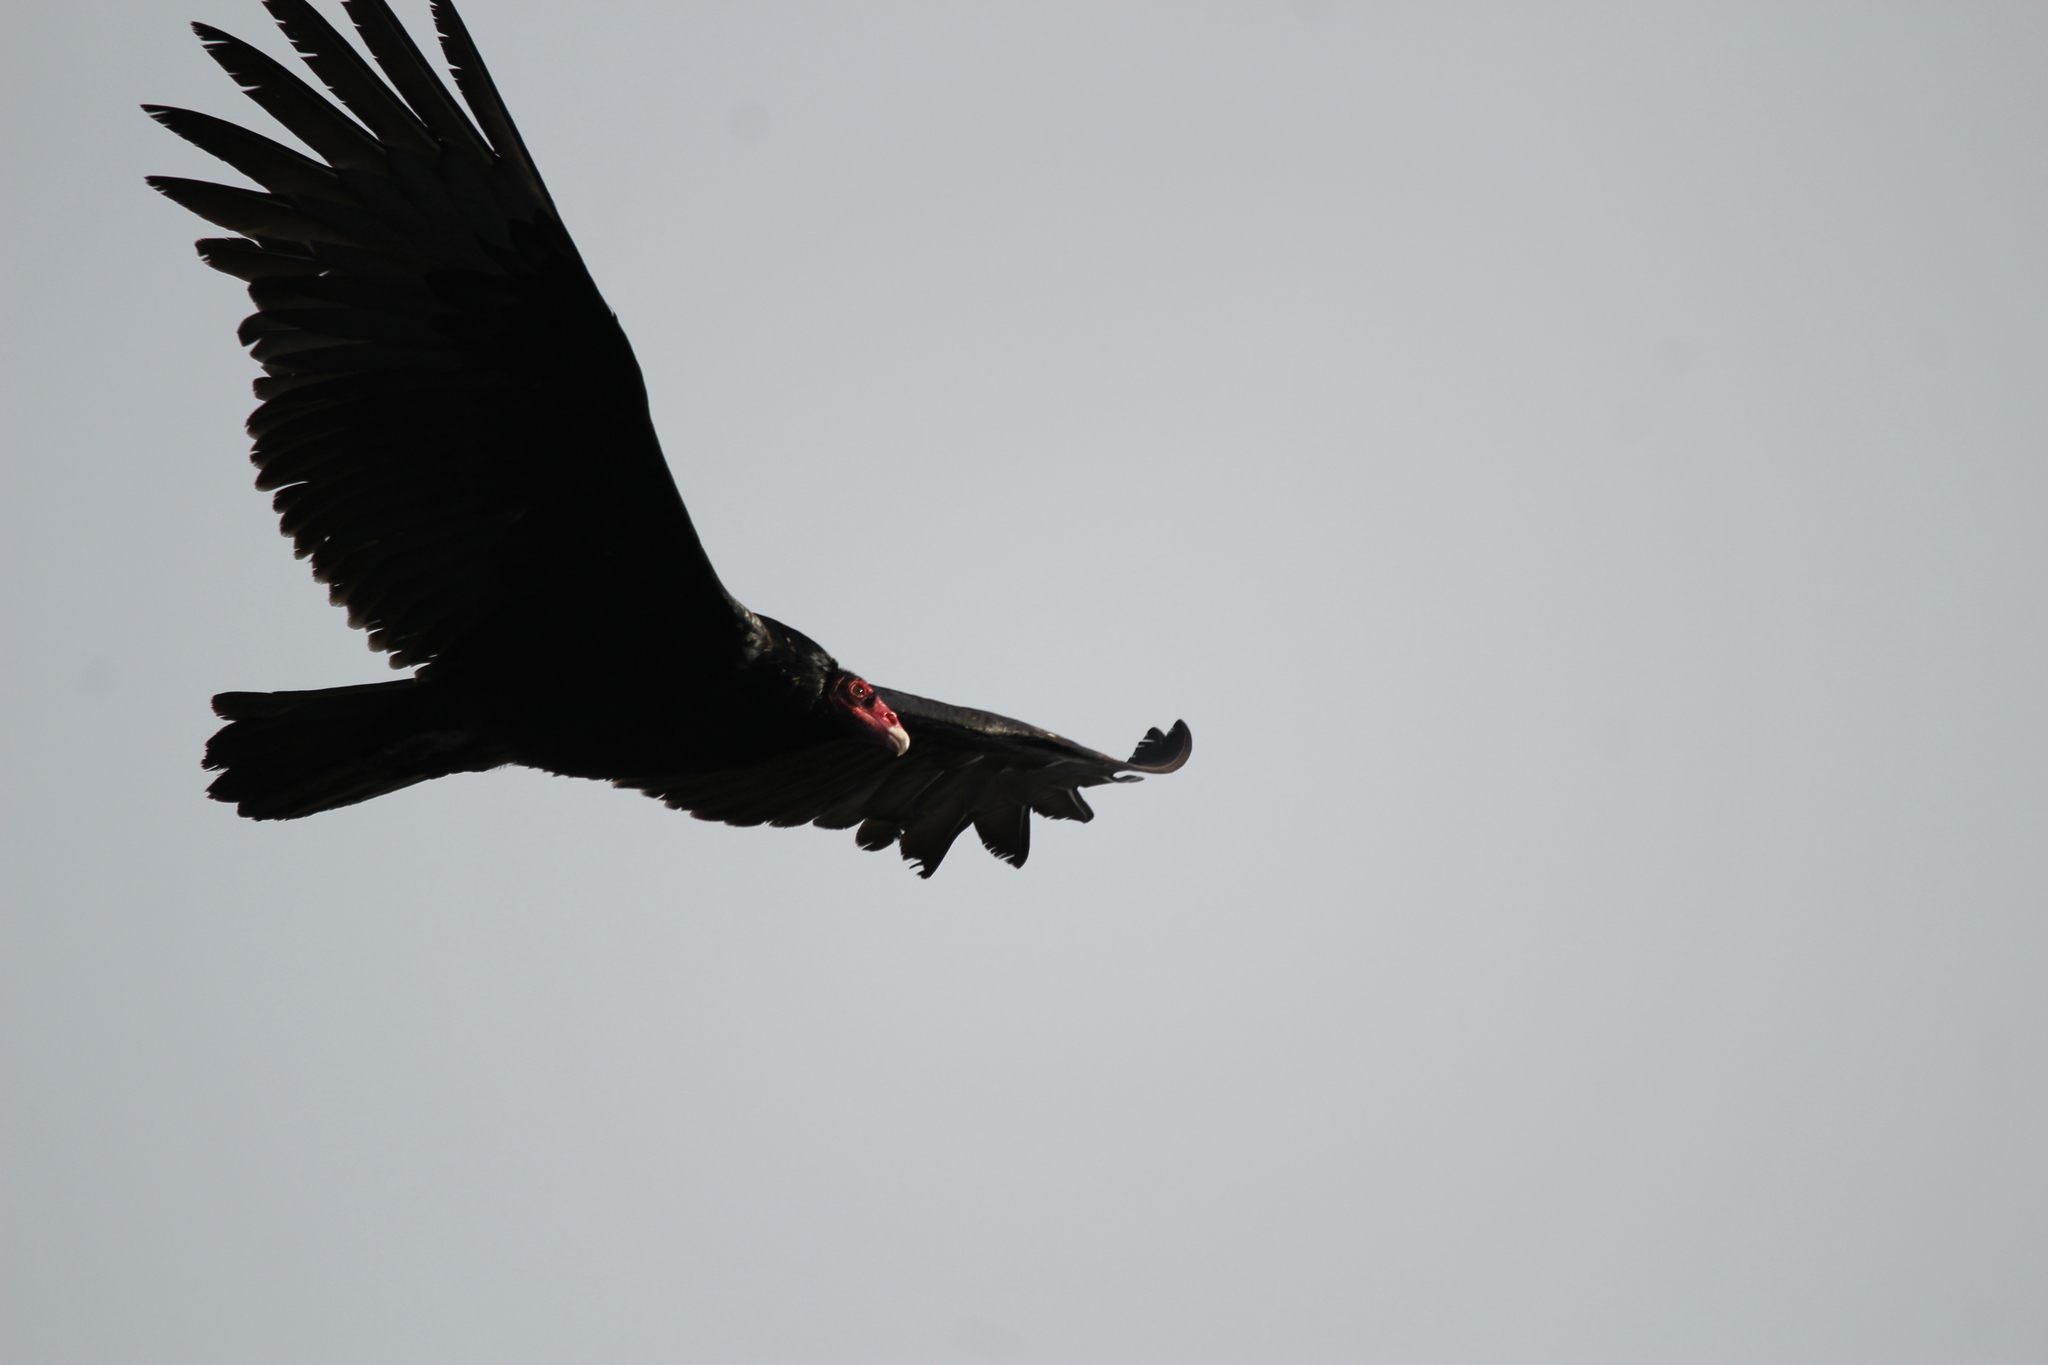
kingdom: Animalia
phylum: Chordata
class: Aves
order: Accipitriformes
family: Cathartidae
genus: Cathartes
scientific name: Cathartes aura
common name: Turkey vulture
